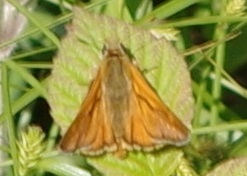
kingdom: Animalia
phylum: Arthropoda
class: Insecta
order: Lepidoptera
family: Hesperiidae
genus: Ochlodes
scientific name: Ochlodes venata
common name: Large skipper
